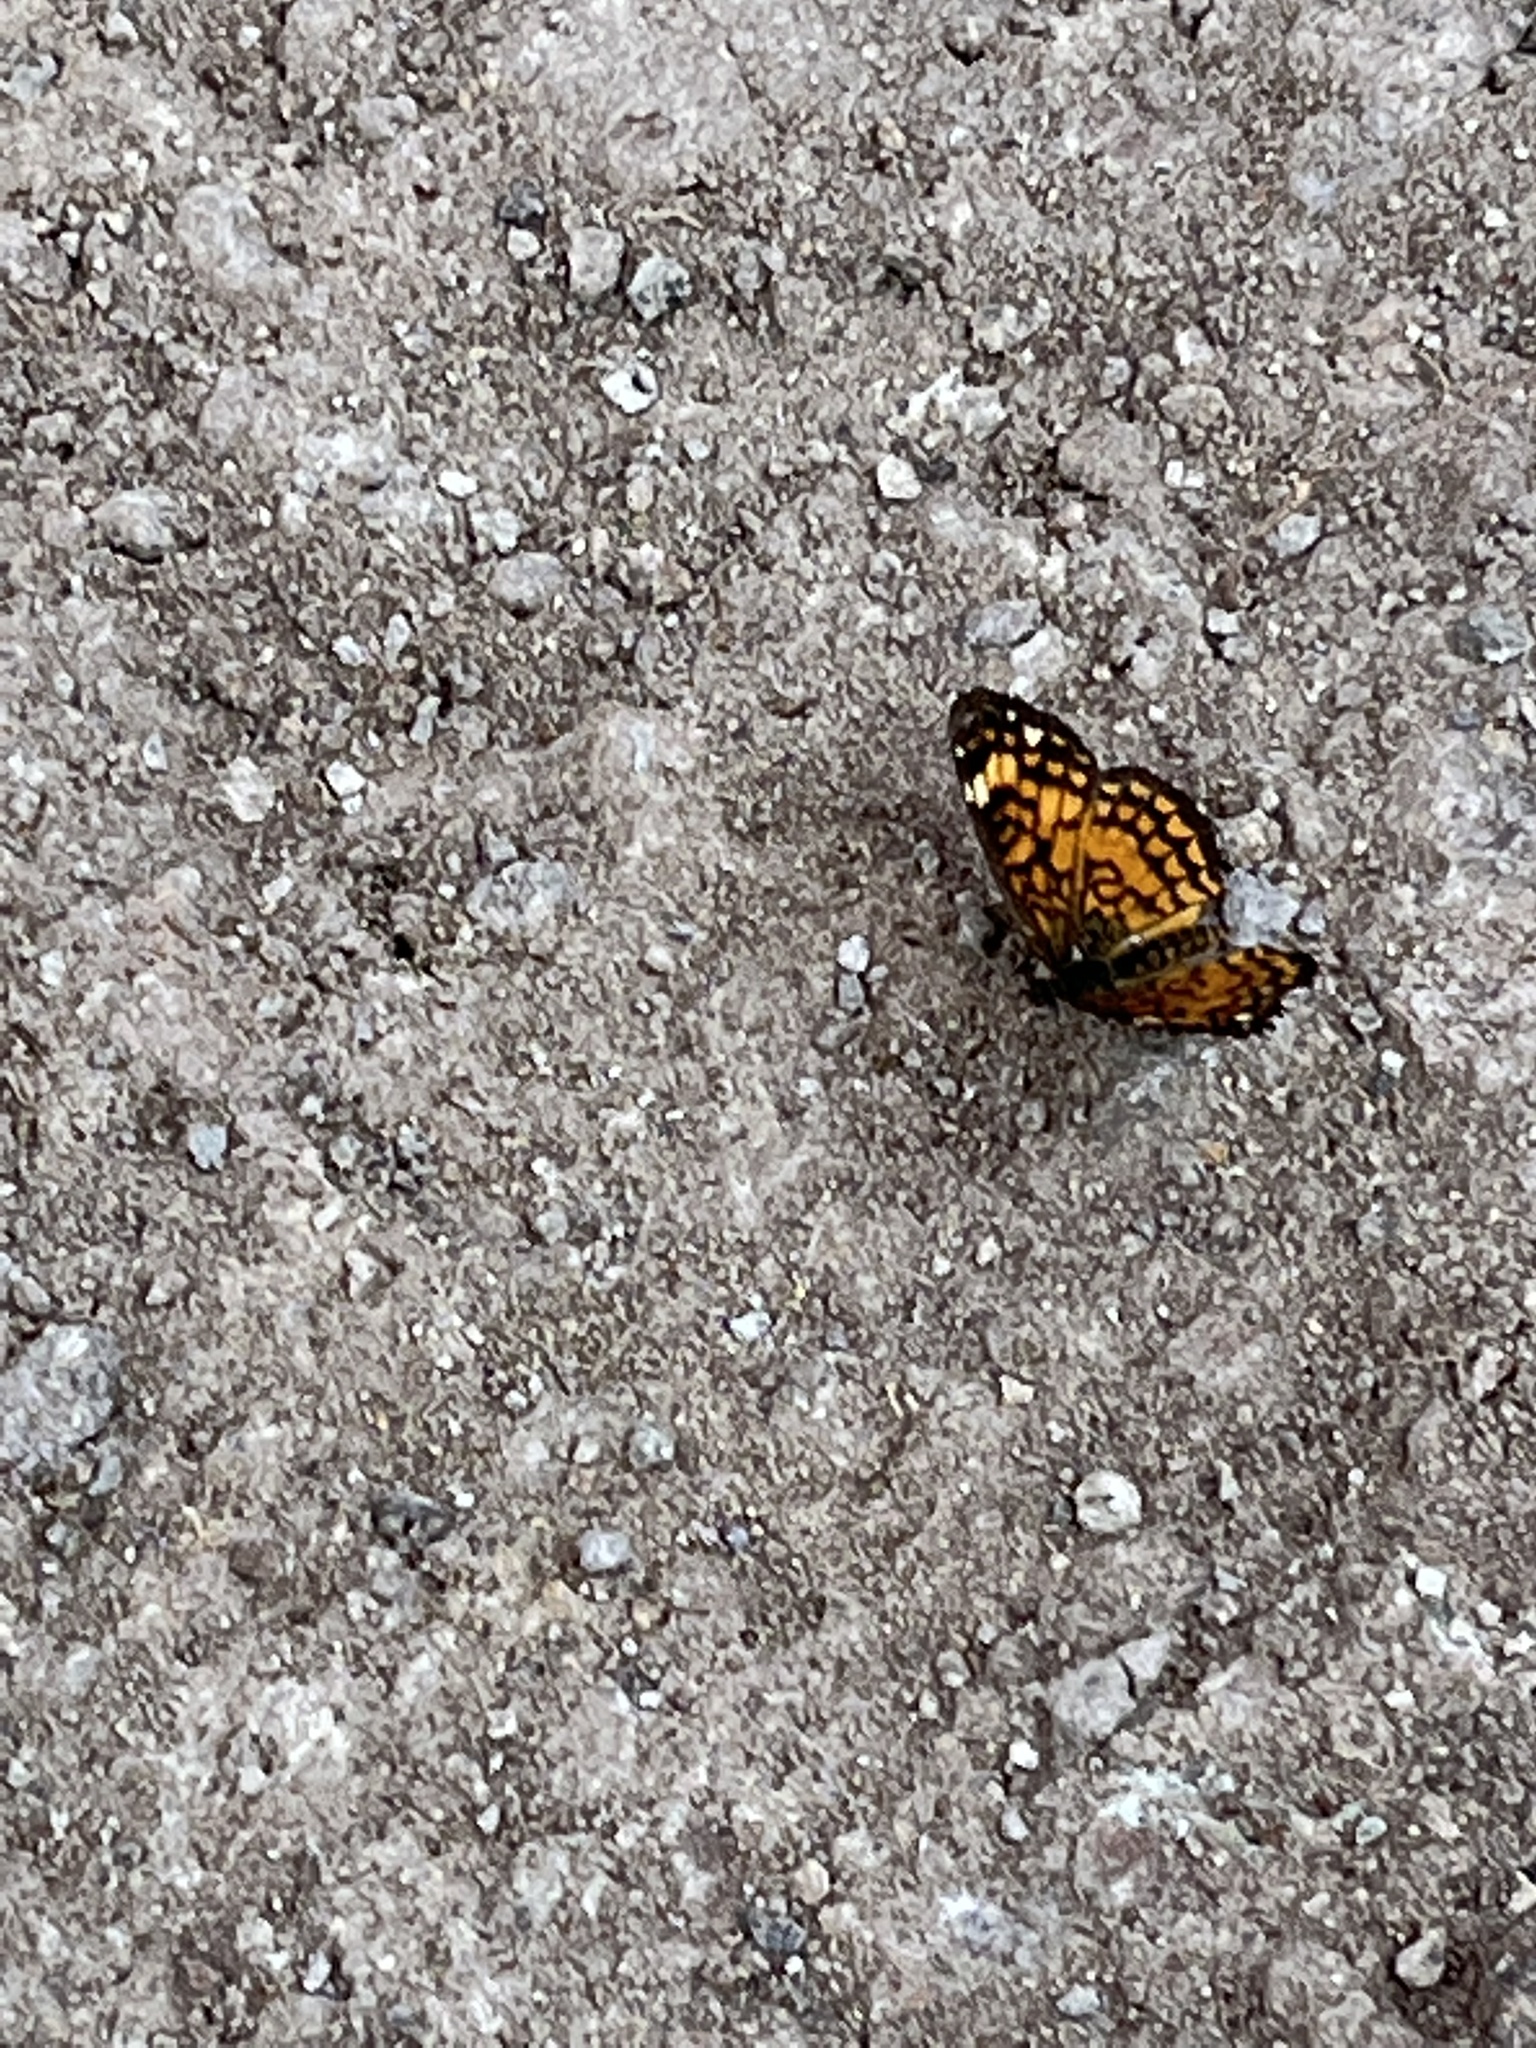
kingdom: Animalia
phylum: Arthropoda
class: Insecta
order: Lepidoptera
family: Nymphalidae
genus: Texola
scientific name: Texola elada
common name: Elada checkerspot
